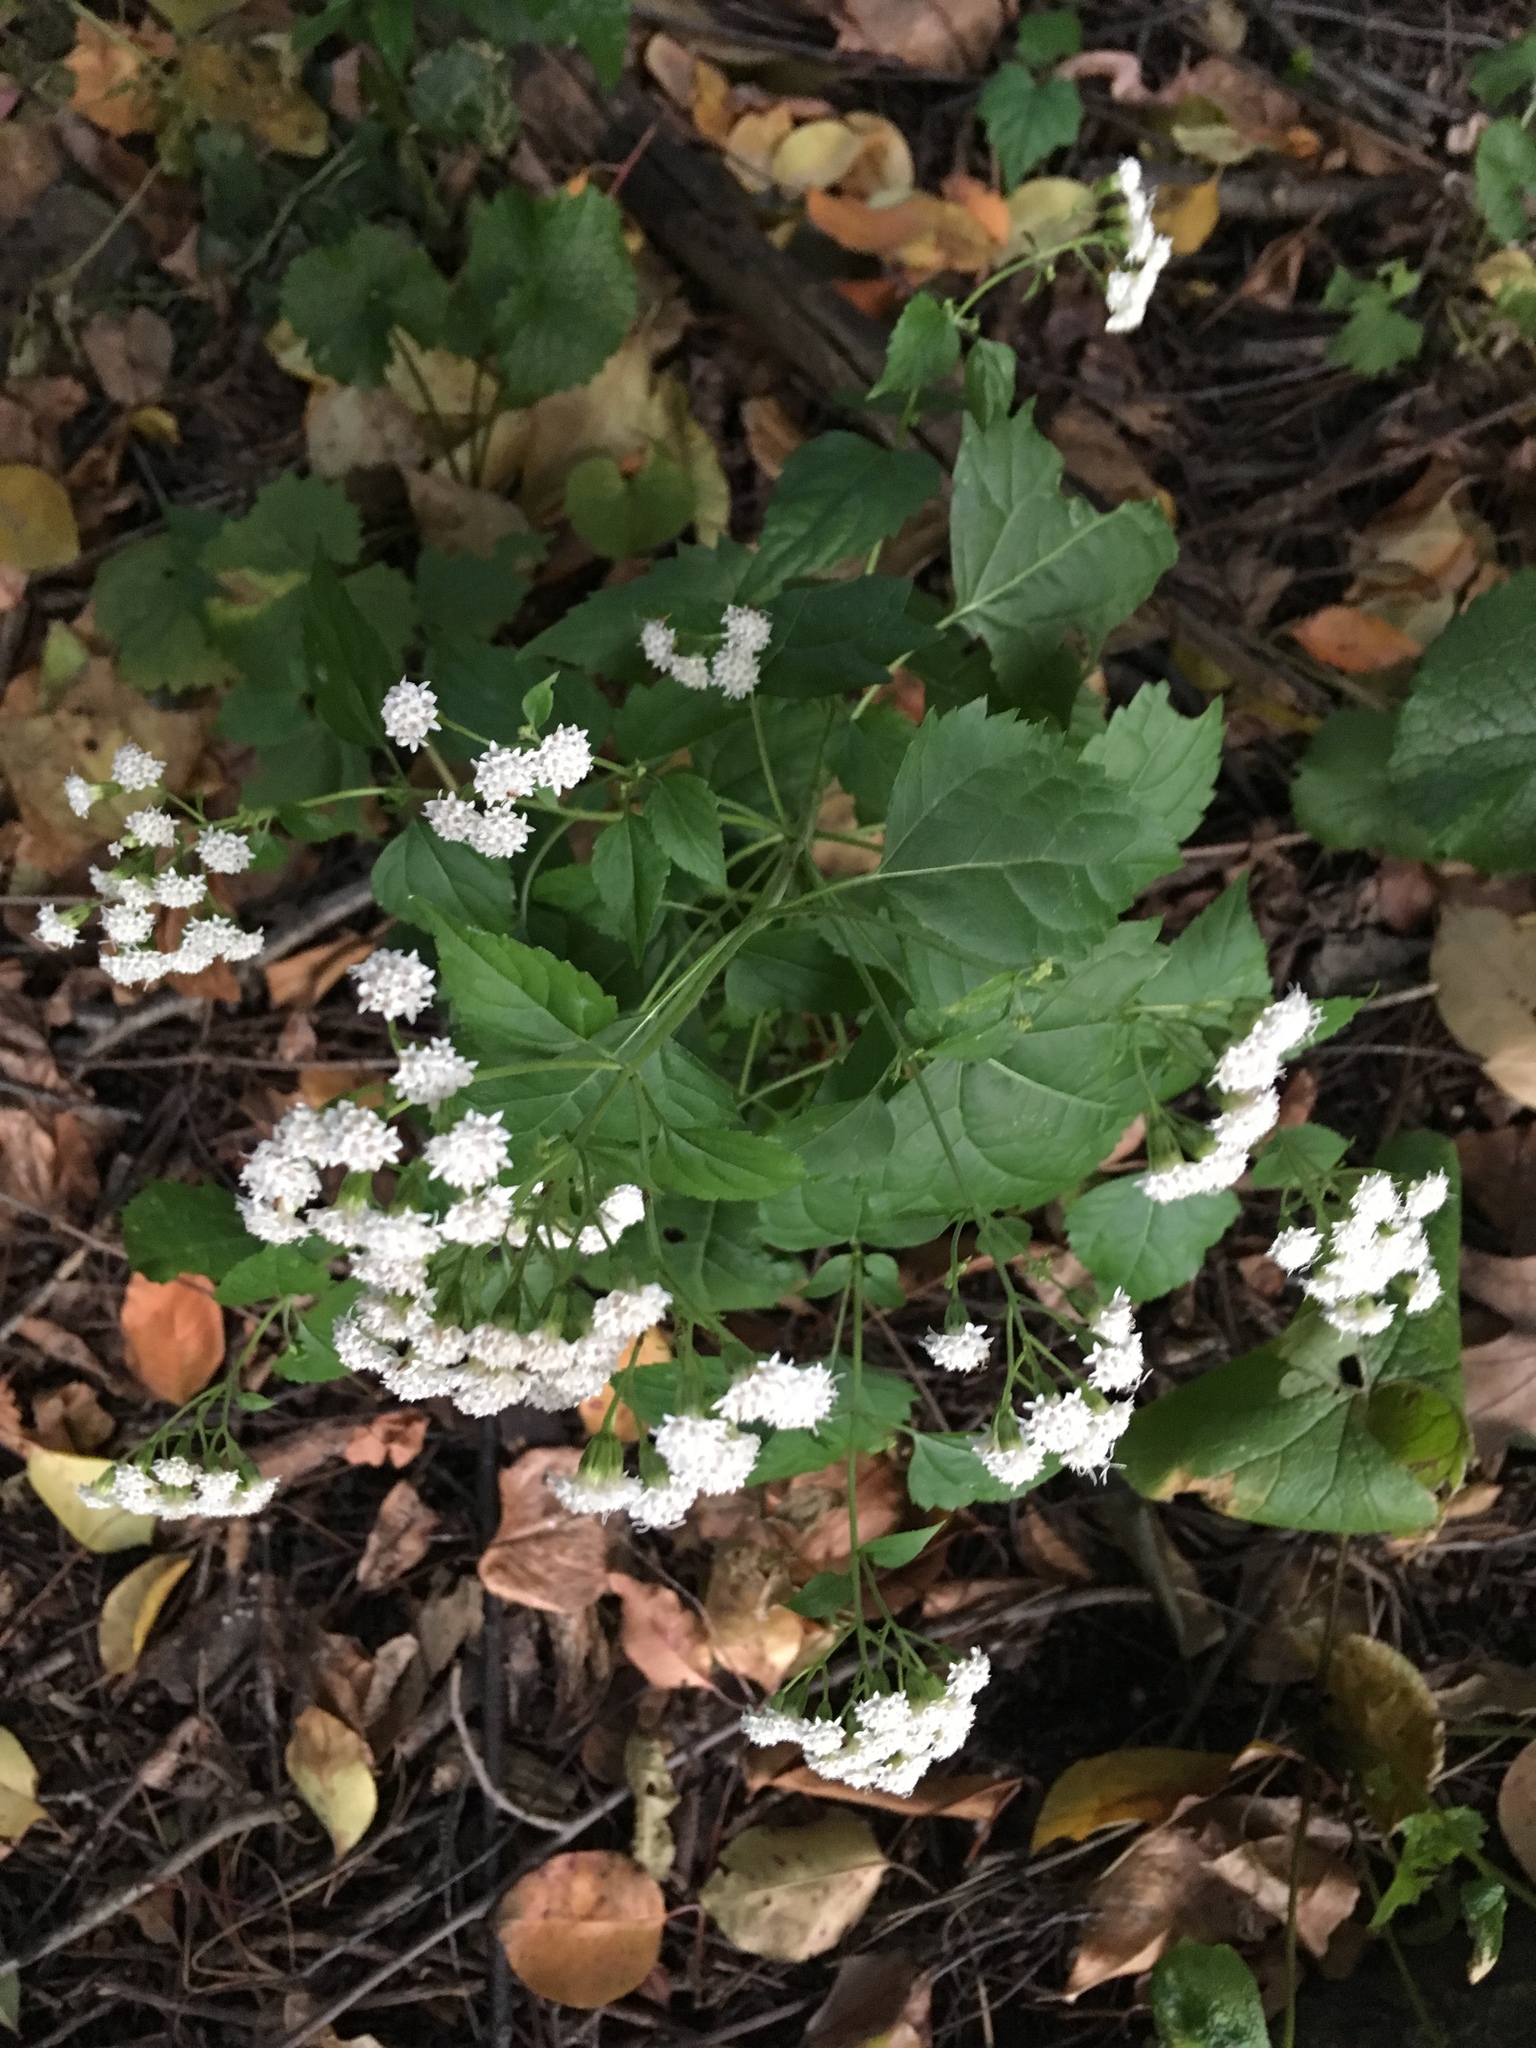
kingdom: Plantae
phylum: Tracheophyta
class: Magnoliopsida
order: Asterales
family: Asteraceae
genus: Ageratina
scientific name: Ageratina altissima
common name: White snakeroot
